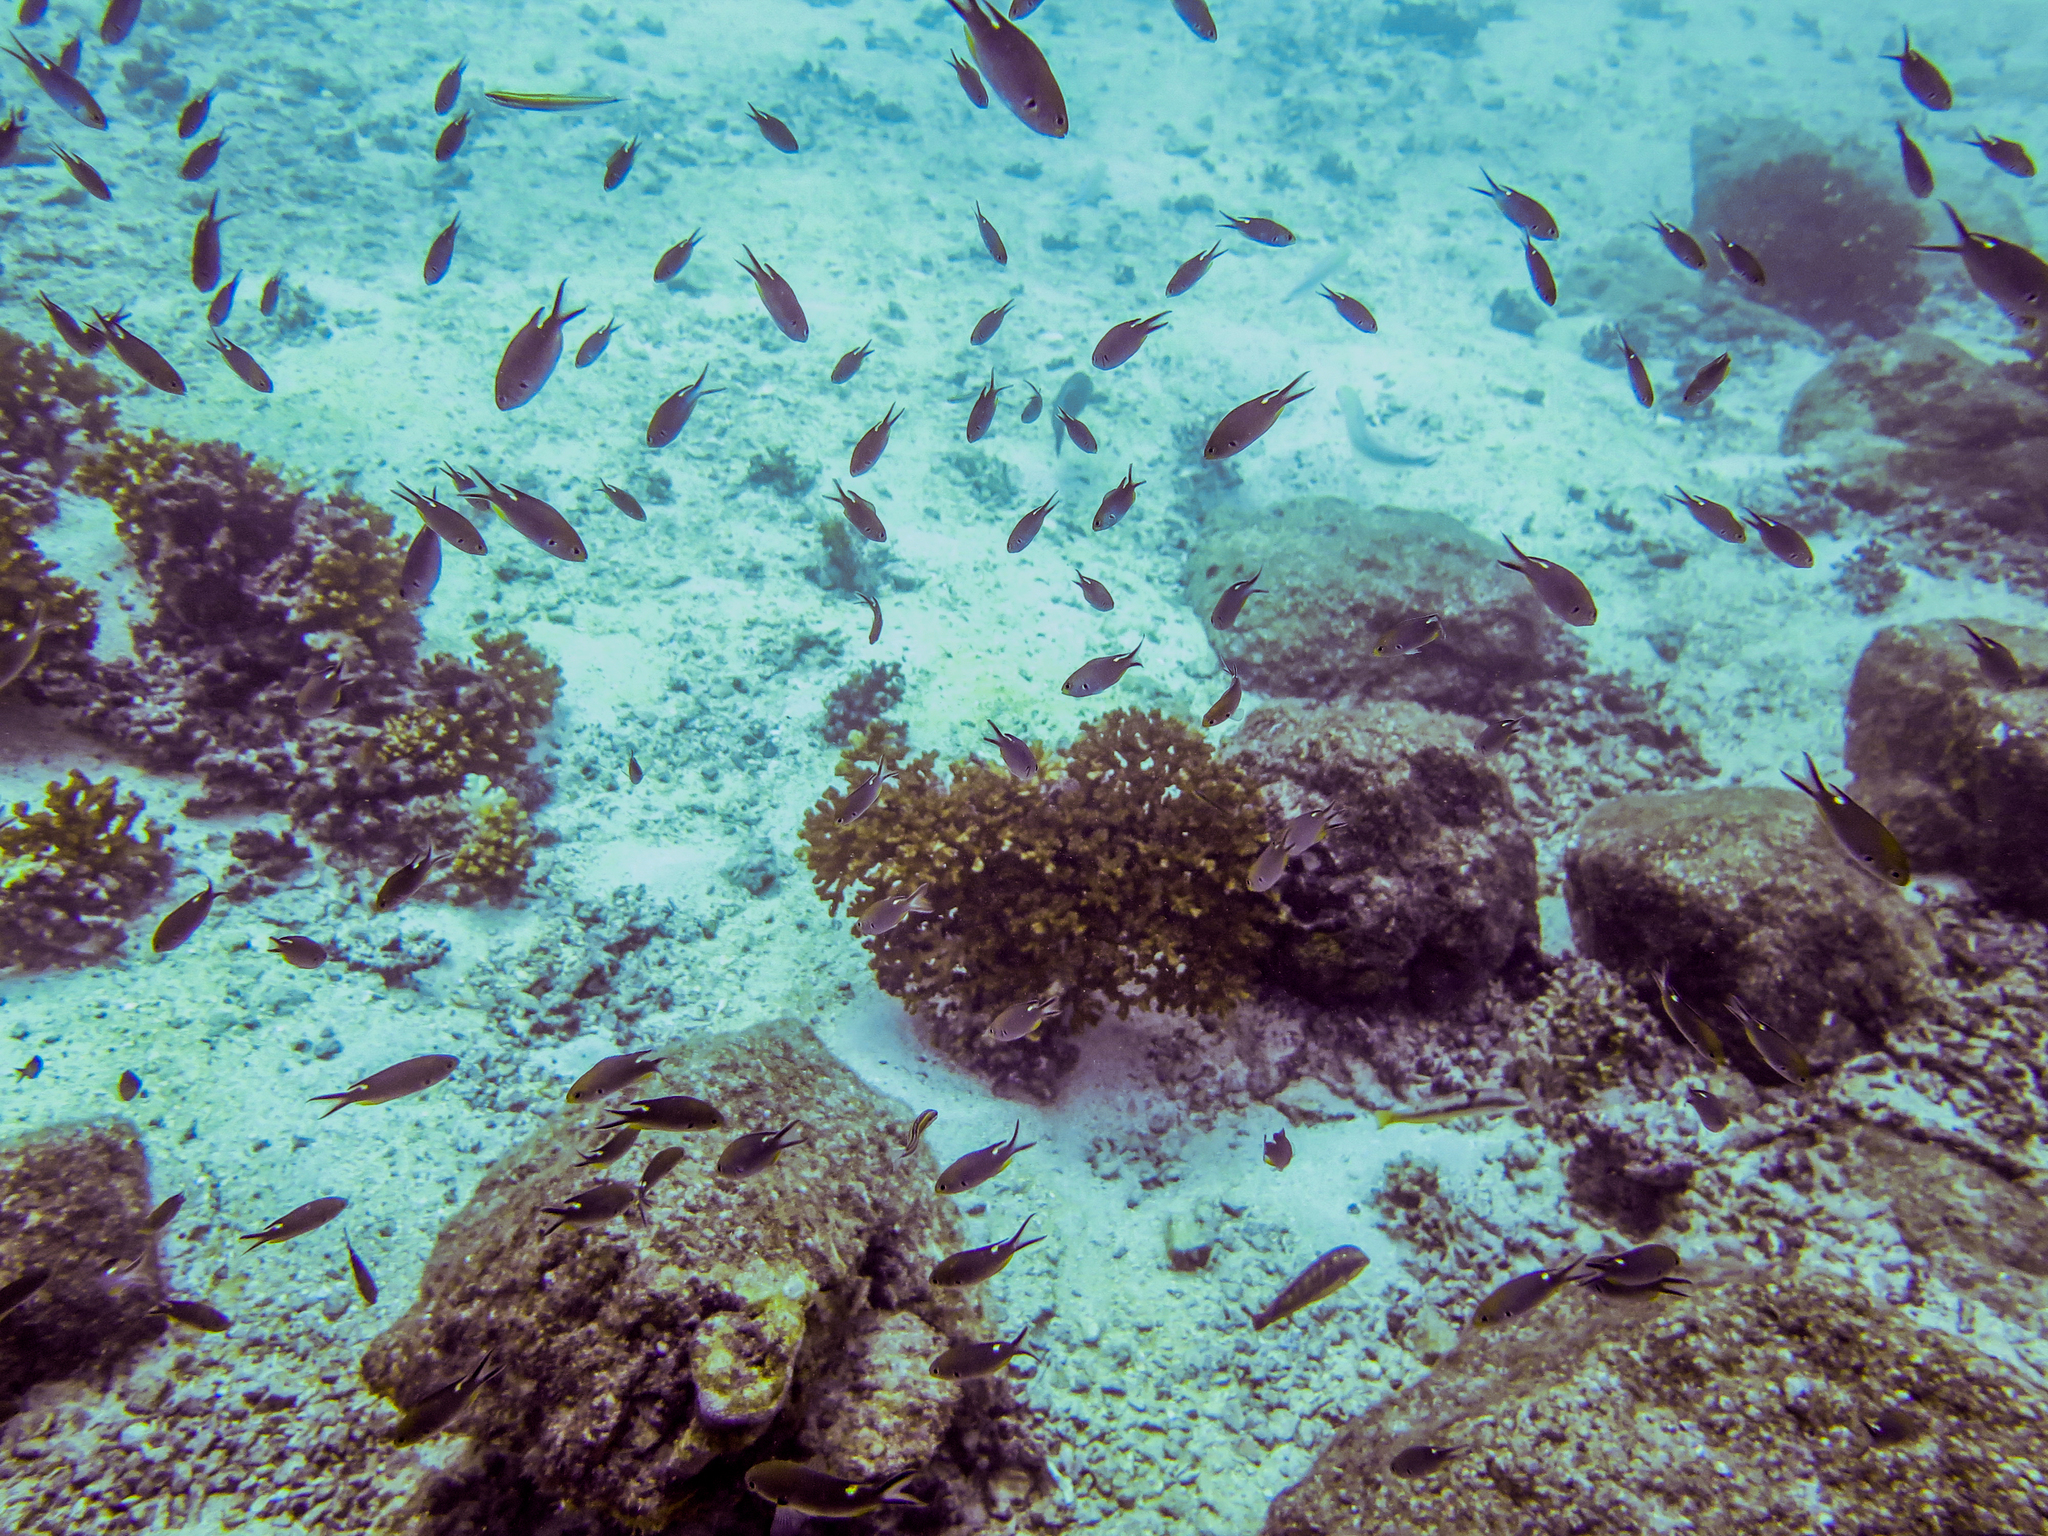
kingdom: Animalia
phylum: Chordata
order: Perciformes
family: Pomacentridae
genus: Chromis
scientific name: Chromis atrilobata
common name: Scissortail damselfish
